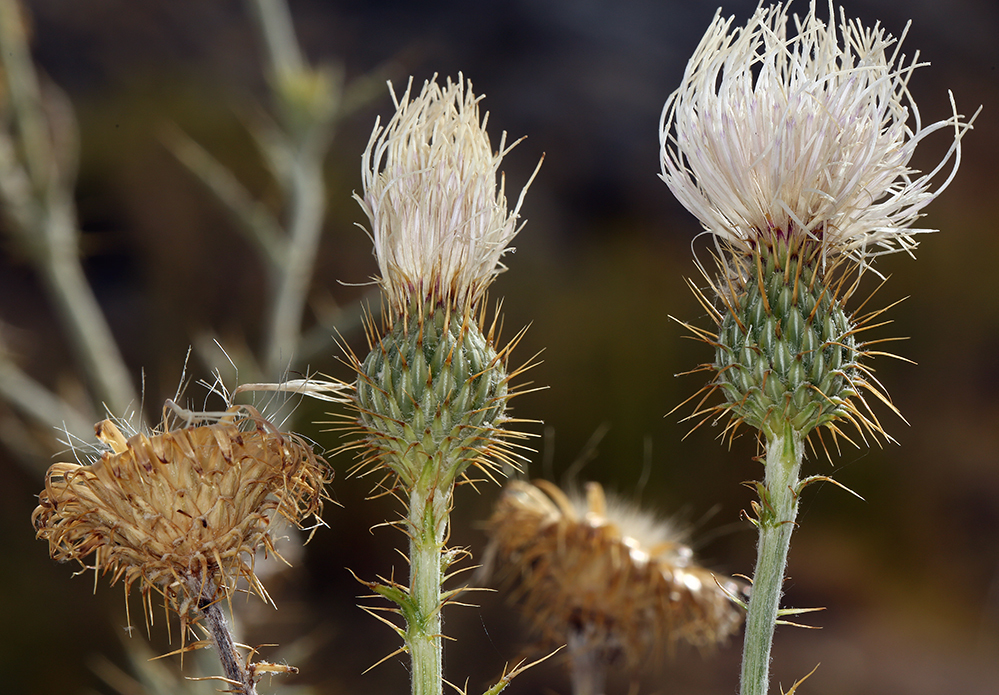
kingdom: Plantae
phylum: Tracheophyta
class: Magnoliopsida
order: Asterales
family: Asteraceae
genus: Cirsium
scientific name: Cirsium mohavense
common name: Mojave thistle
